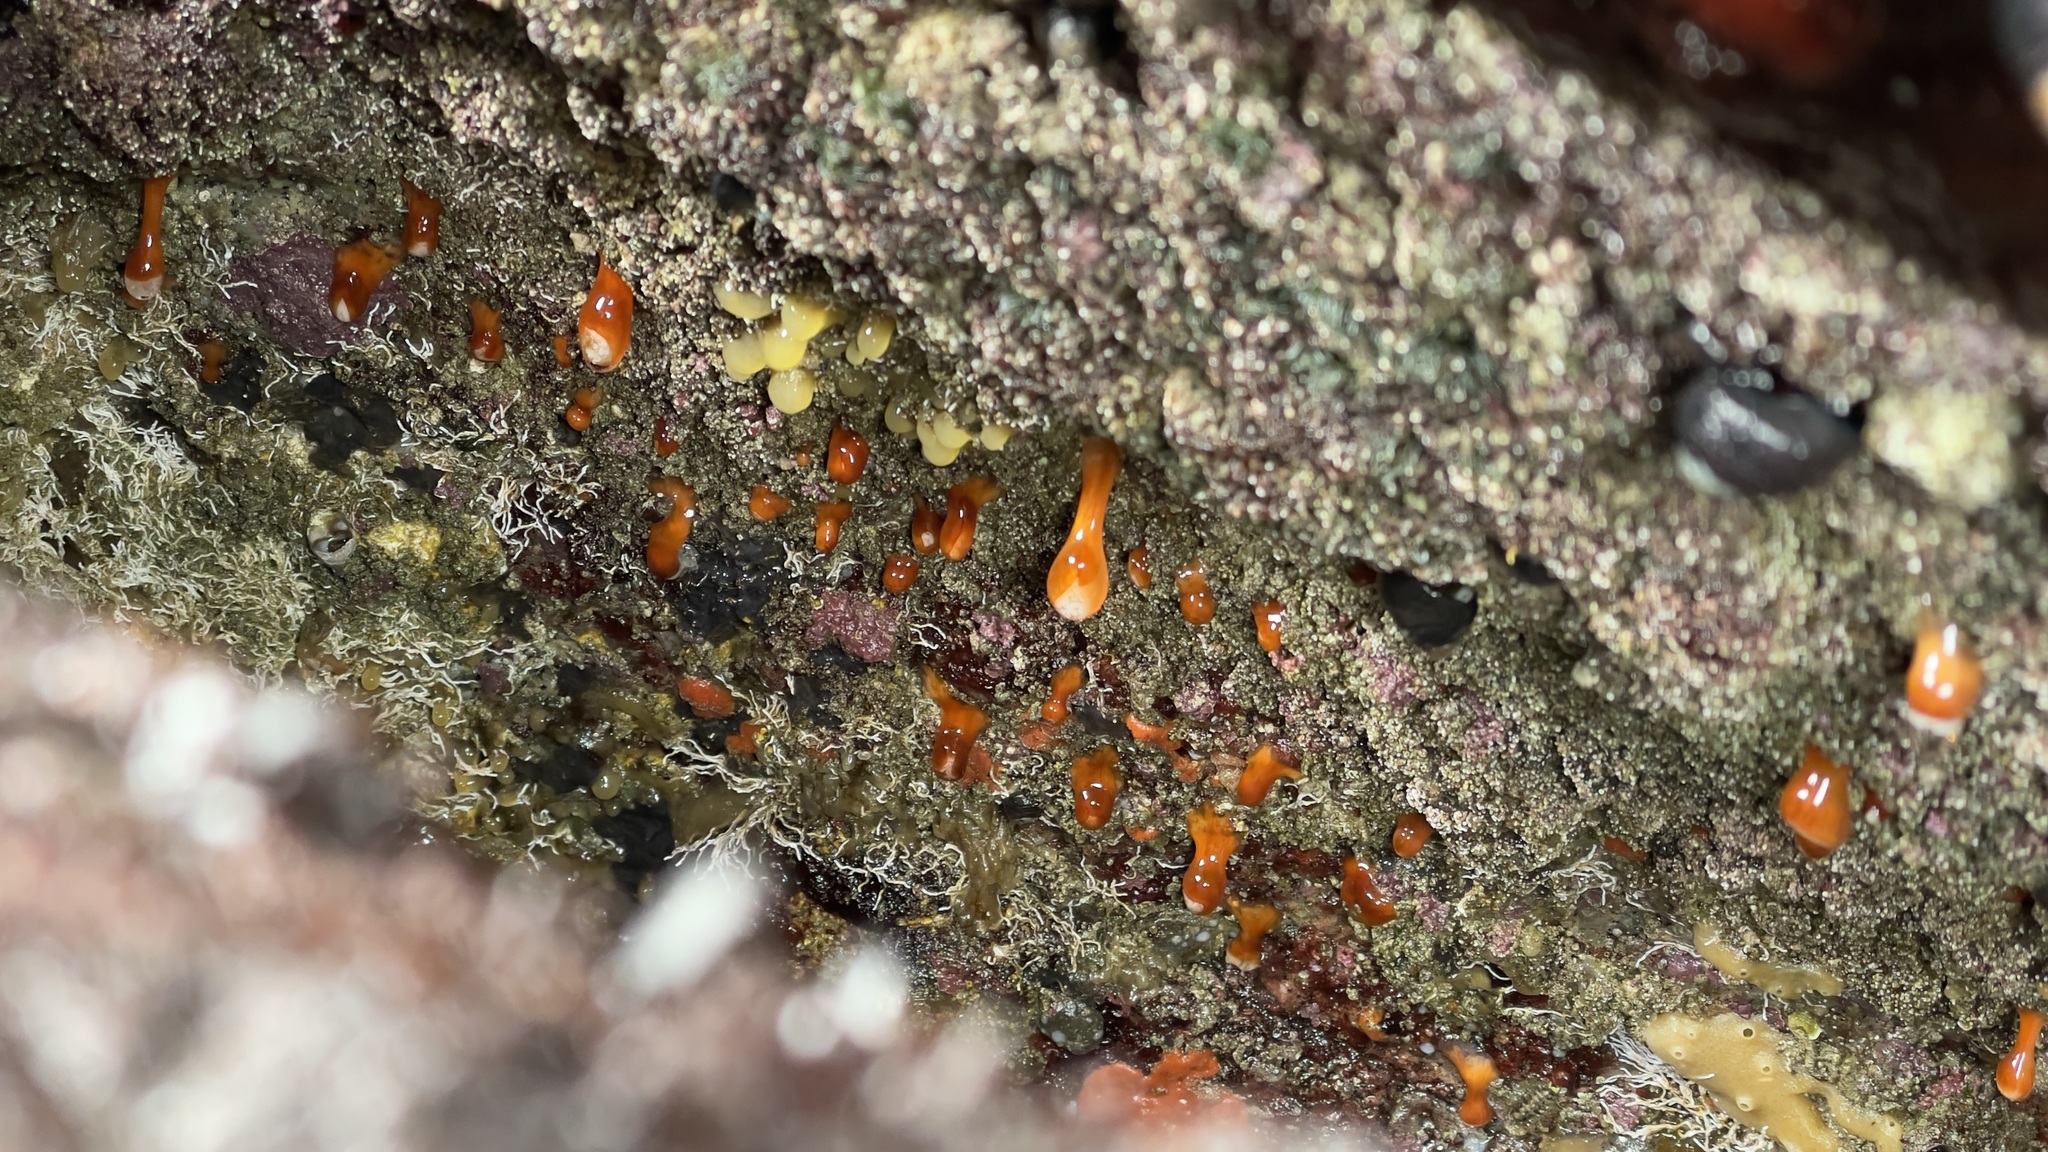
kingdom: Animalia
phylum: Cnidaria
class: Anthozoa
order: Corallimorpharia
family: Corallimorphidae
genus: Corynactis
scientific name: Corynactis californica
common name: Strawberry corallimorpharian
